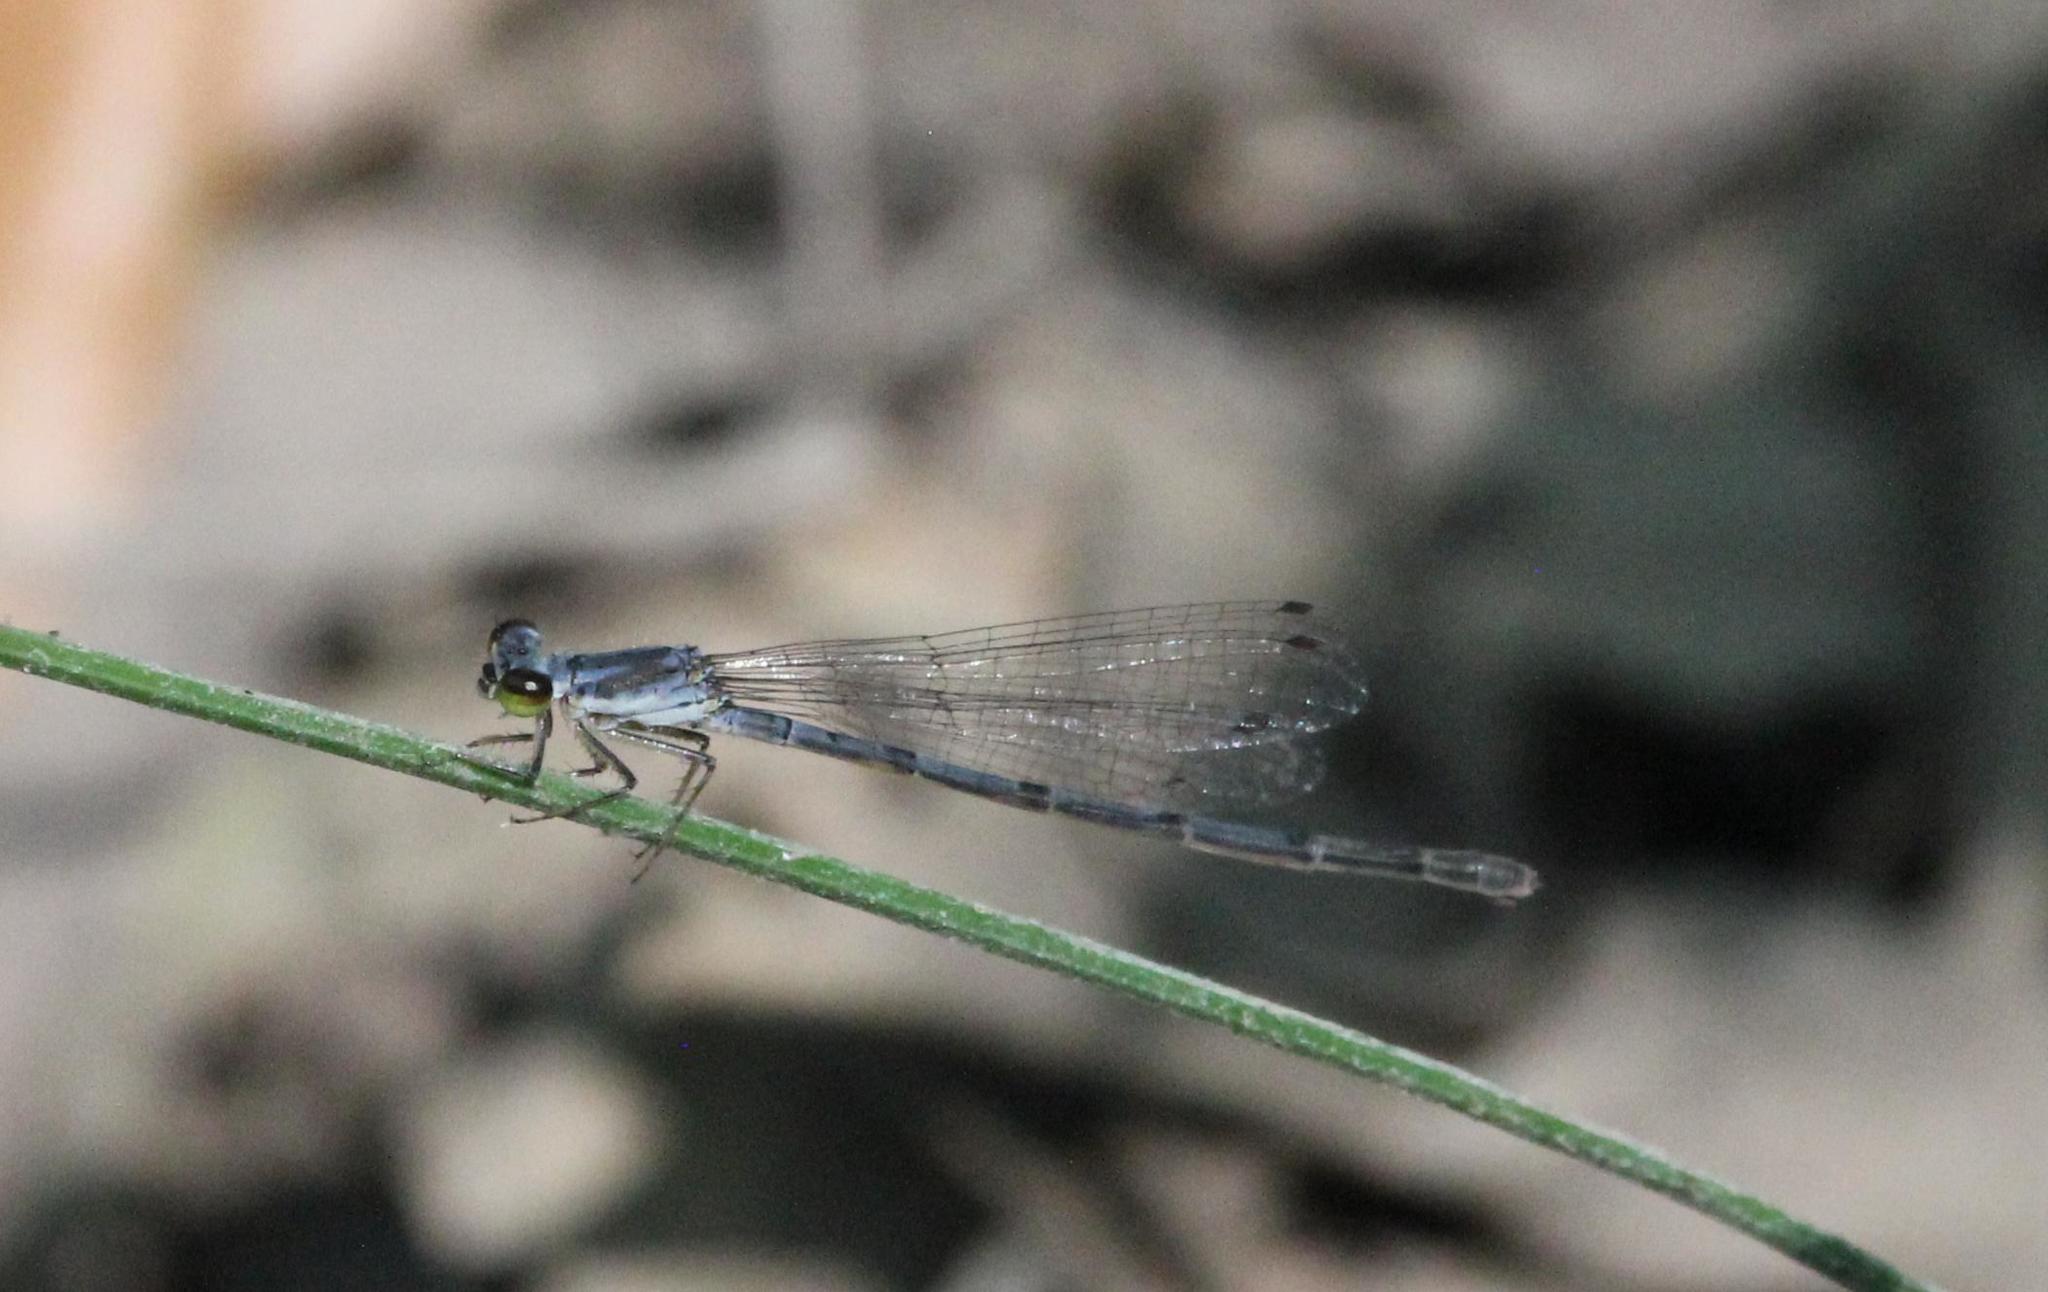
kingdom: Animalia
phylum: Arthropoda
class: Insecta
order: Odonata
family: Coenagrionidae
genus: Ischnura
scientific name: Ischnura posita
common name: Fragile forktail
